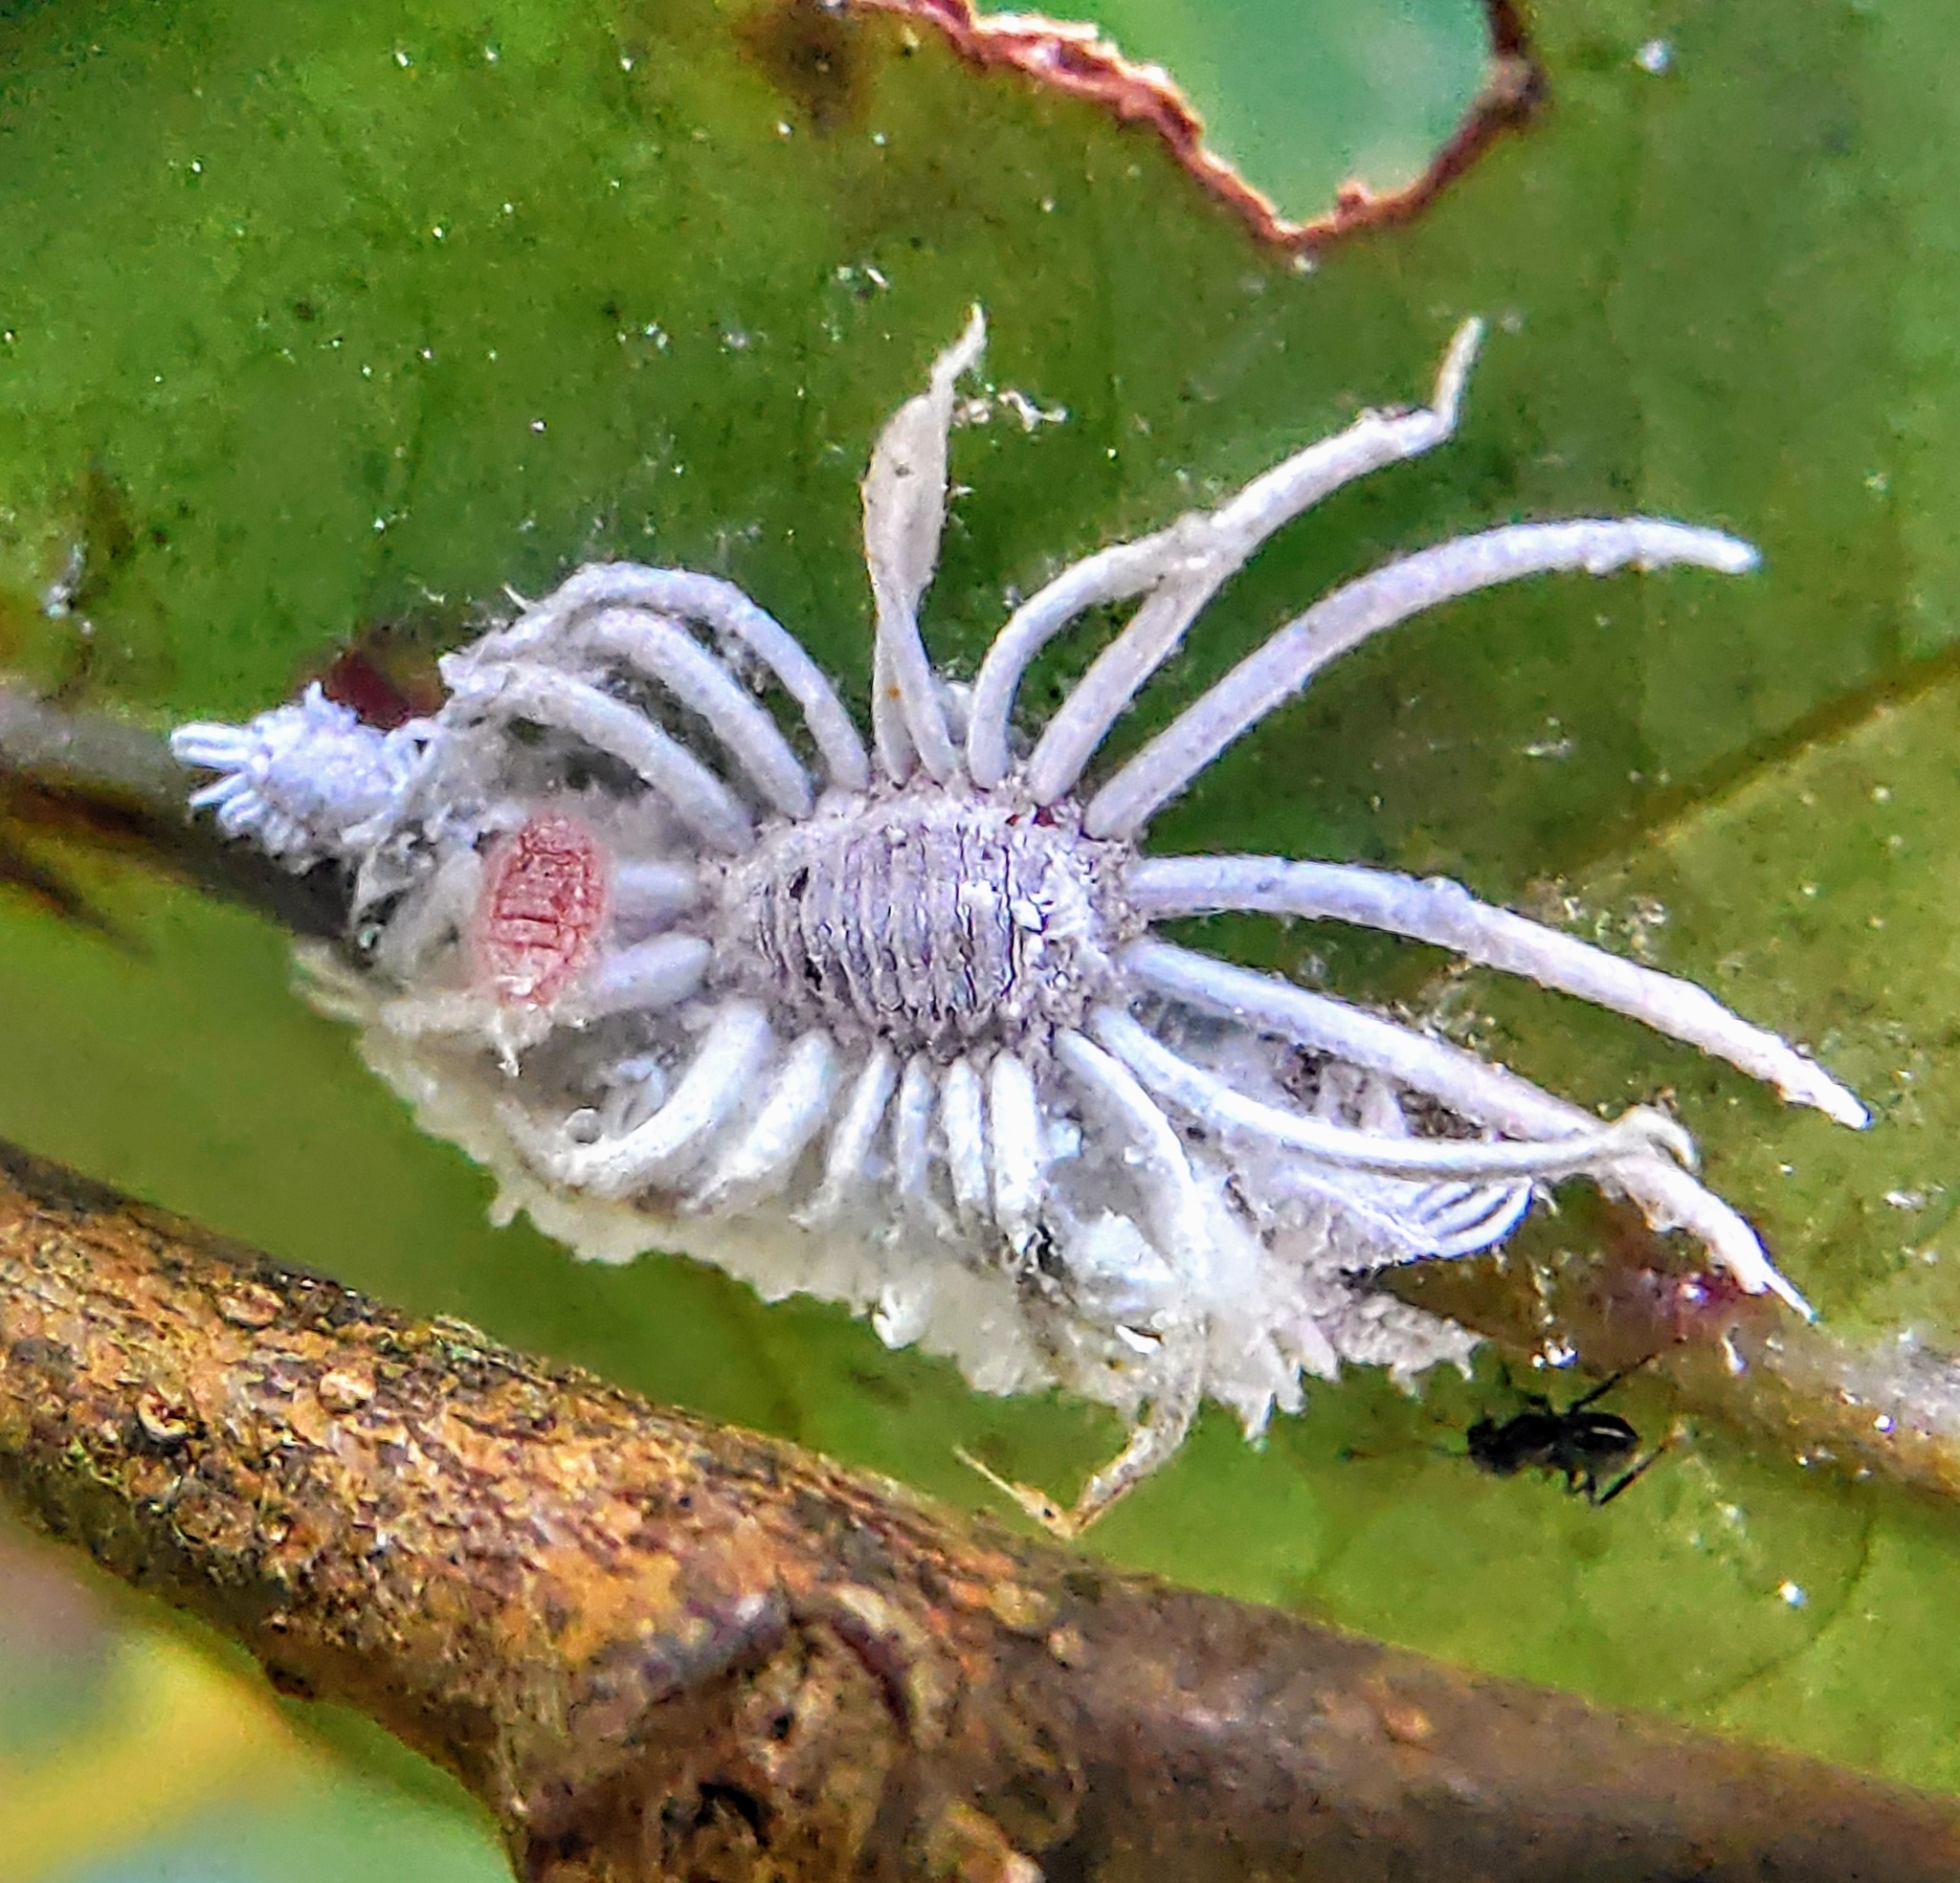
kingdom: Animalia
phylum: Arthropoda
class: Insecta
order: Hemiptera
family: Margarodidae
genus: Icerya
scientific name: Icerya aegyptiaca
